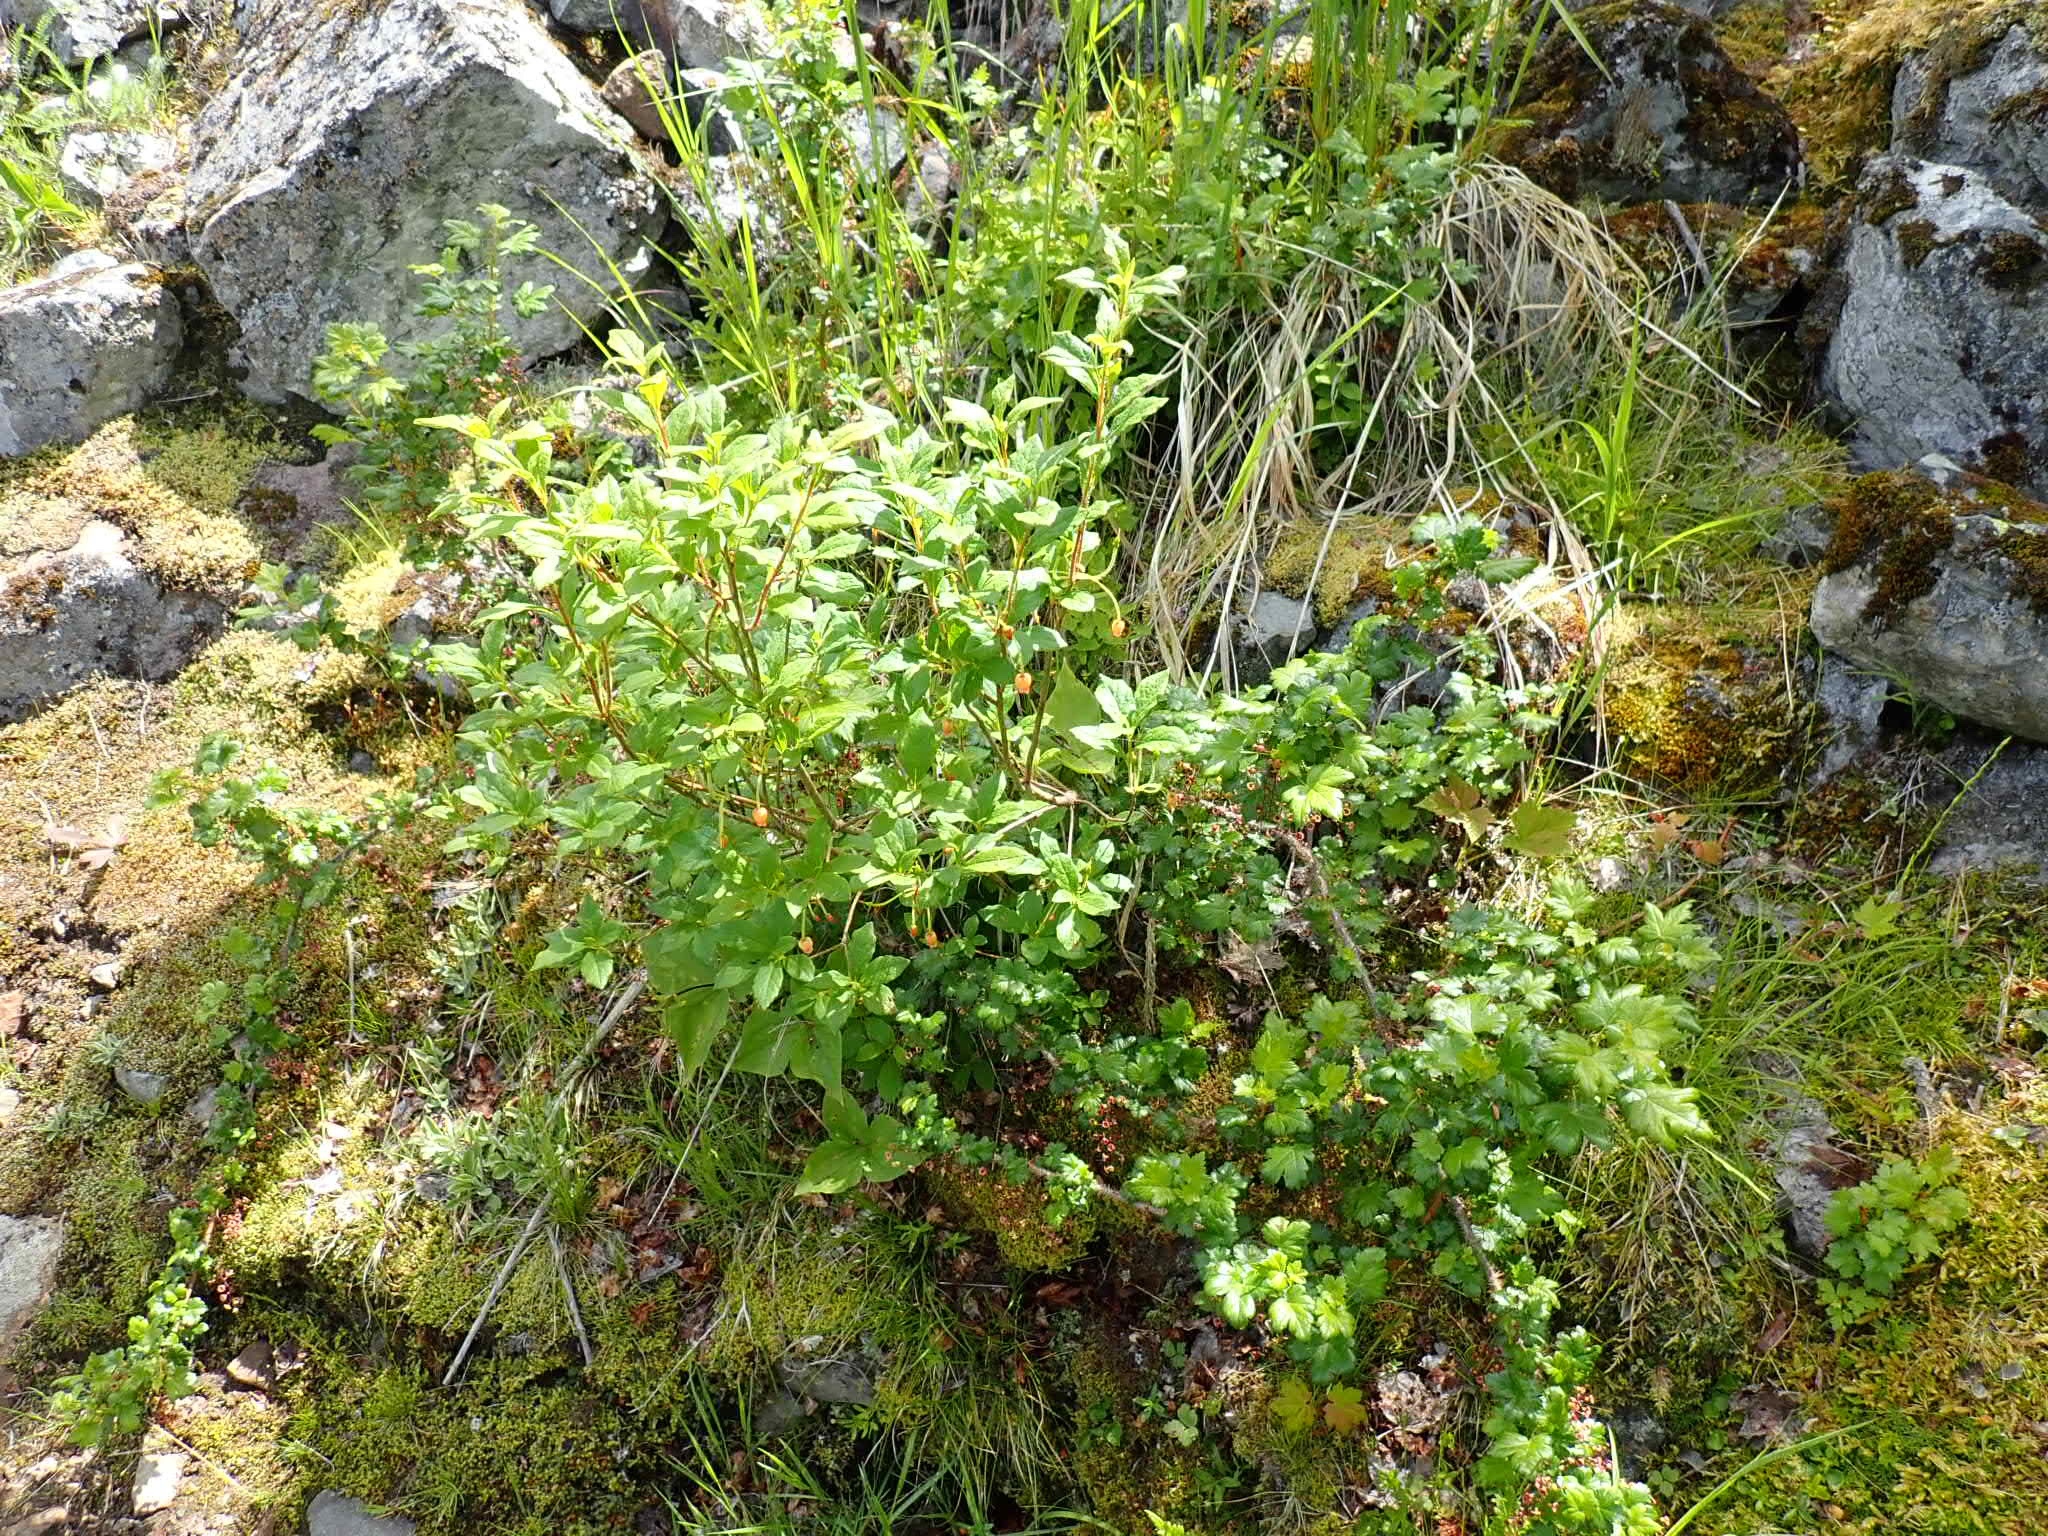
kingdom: Plantae
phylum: Tracheophyta
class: Magnoliopsida
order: Saxifragales
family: Grossulariaceae
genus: Ribes
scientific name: Ribes lacustre
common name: Black gooseberry
